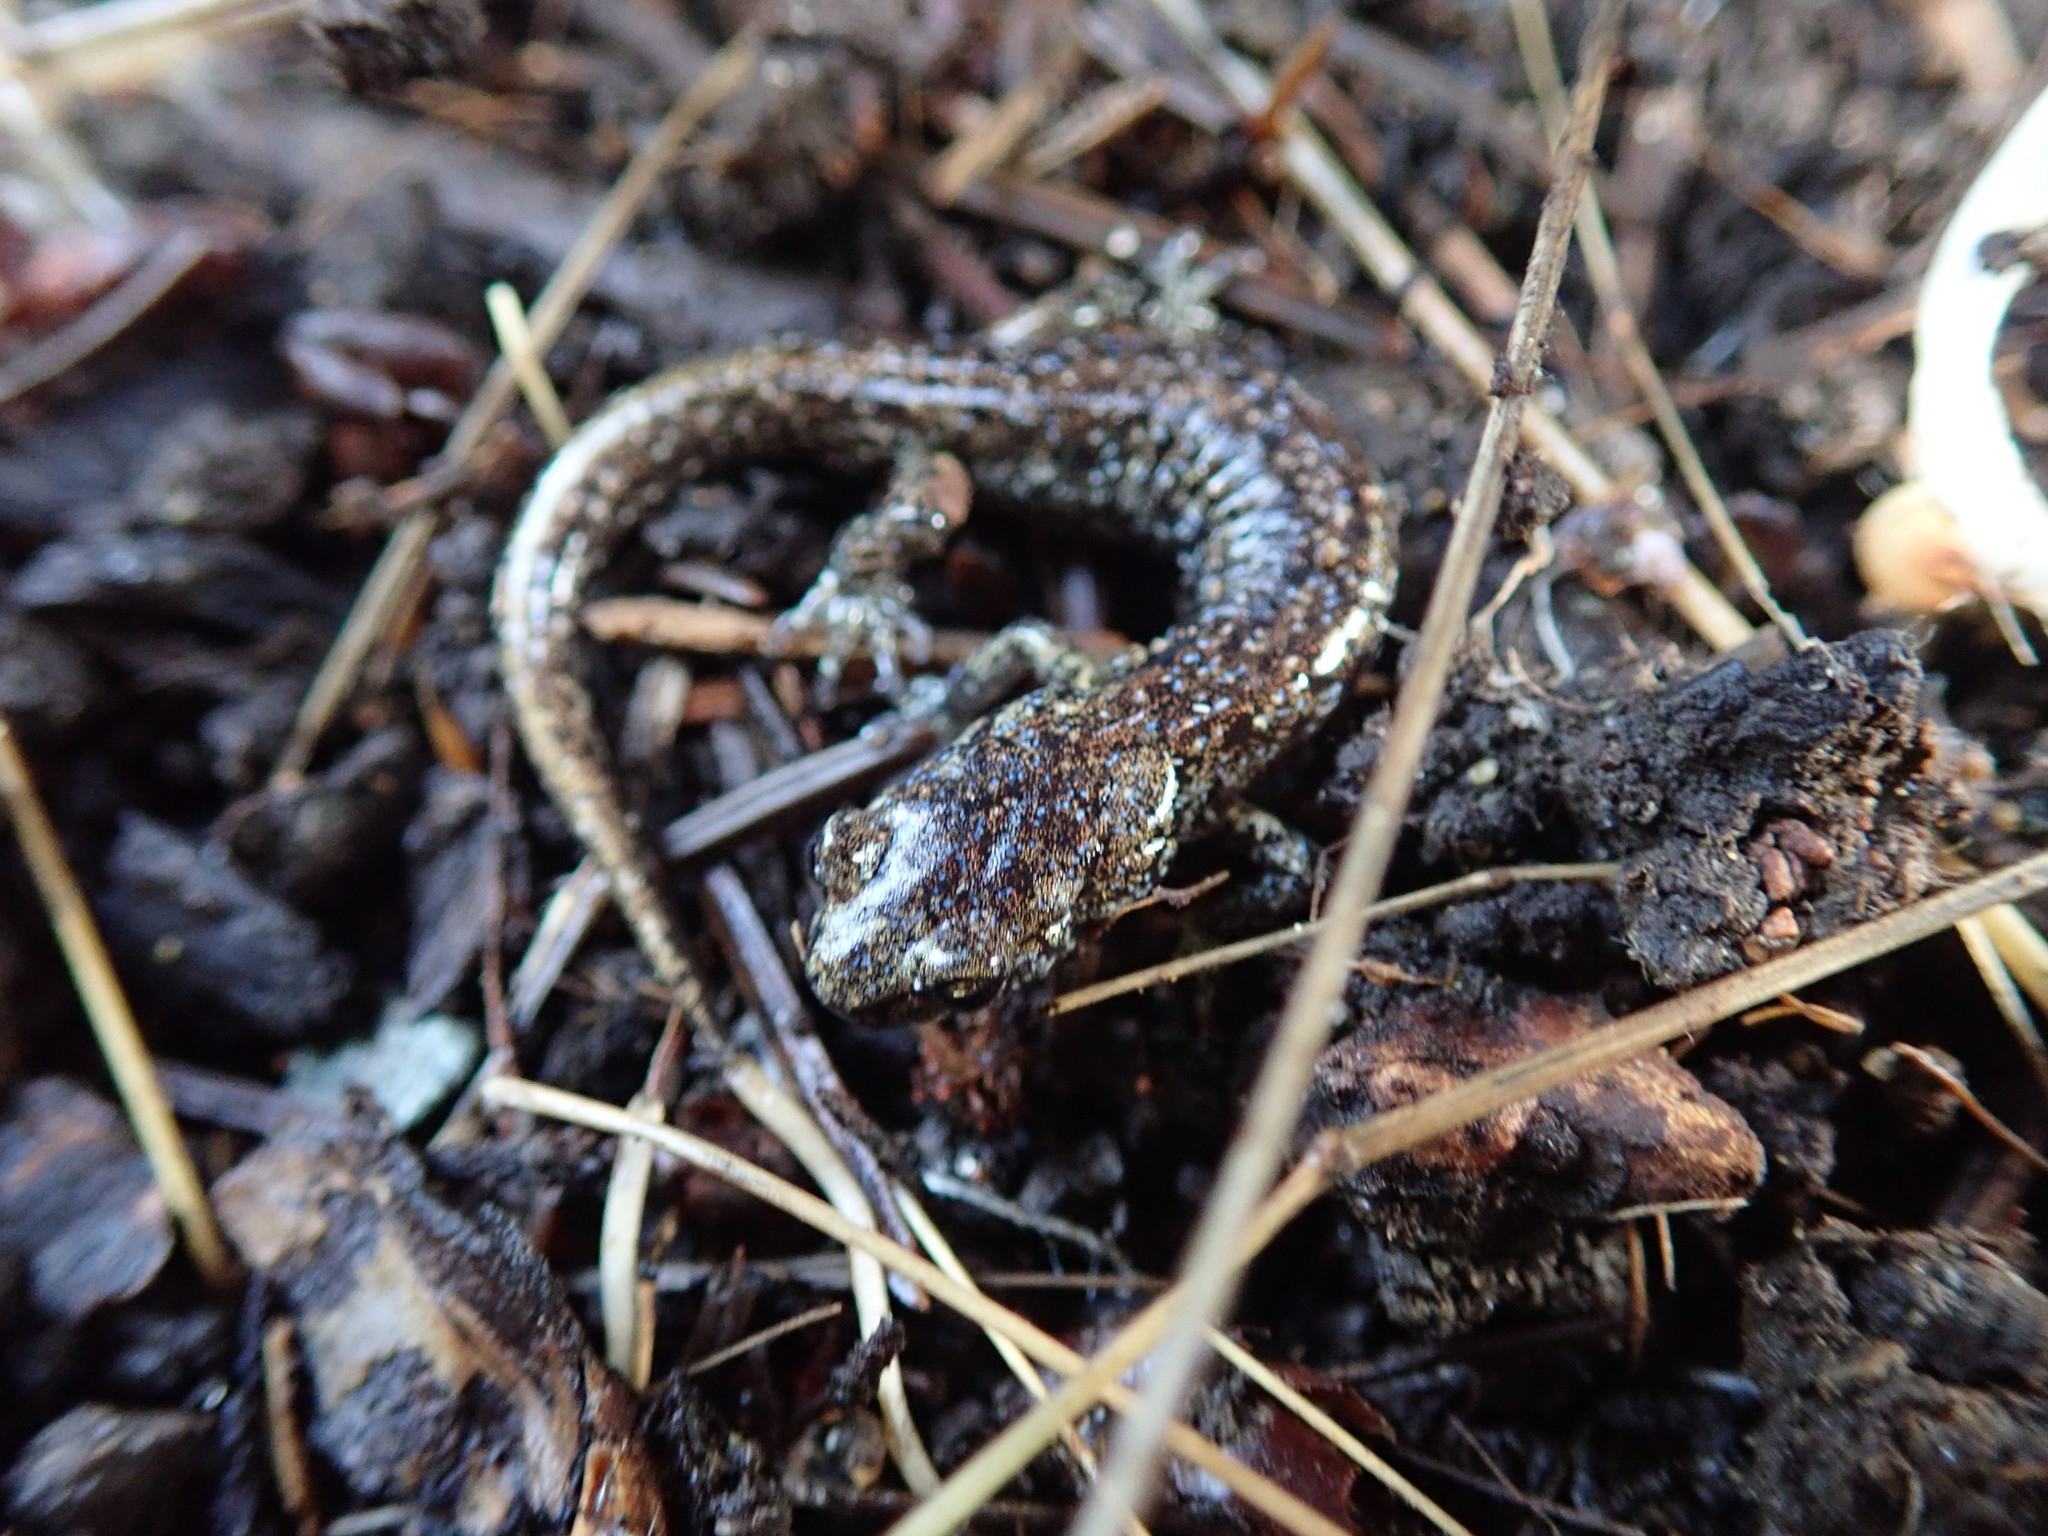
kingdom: Animalia
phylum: Chordata
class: Amphibia
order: Caudata
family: Plethodontidae
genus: Aneides
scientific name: Aneides vagrans
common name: Wandering salamander
